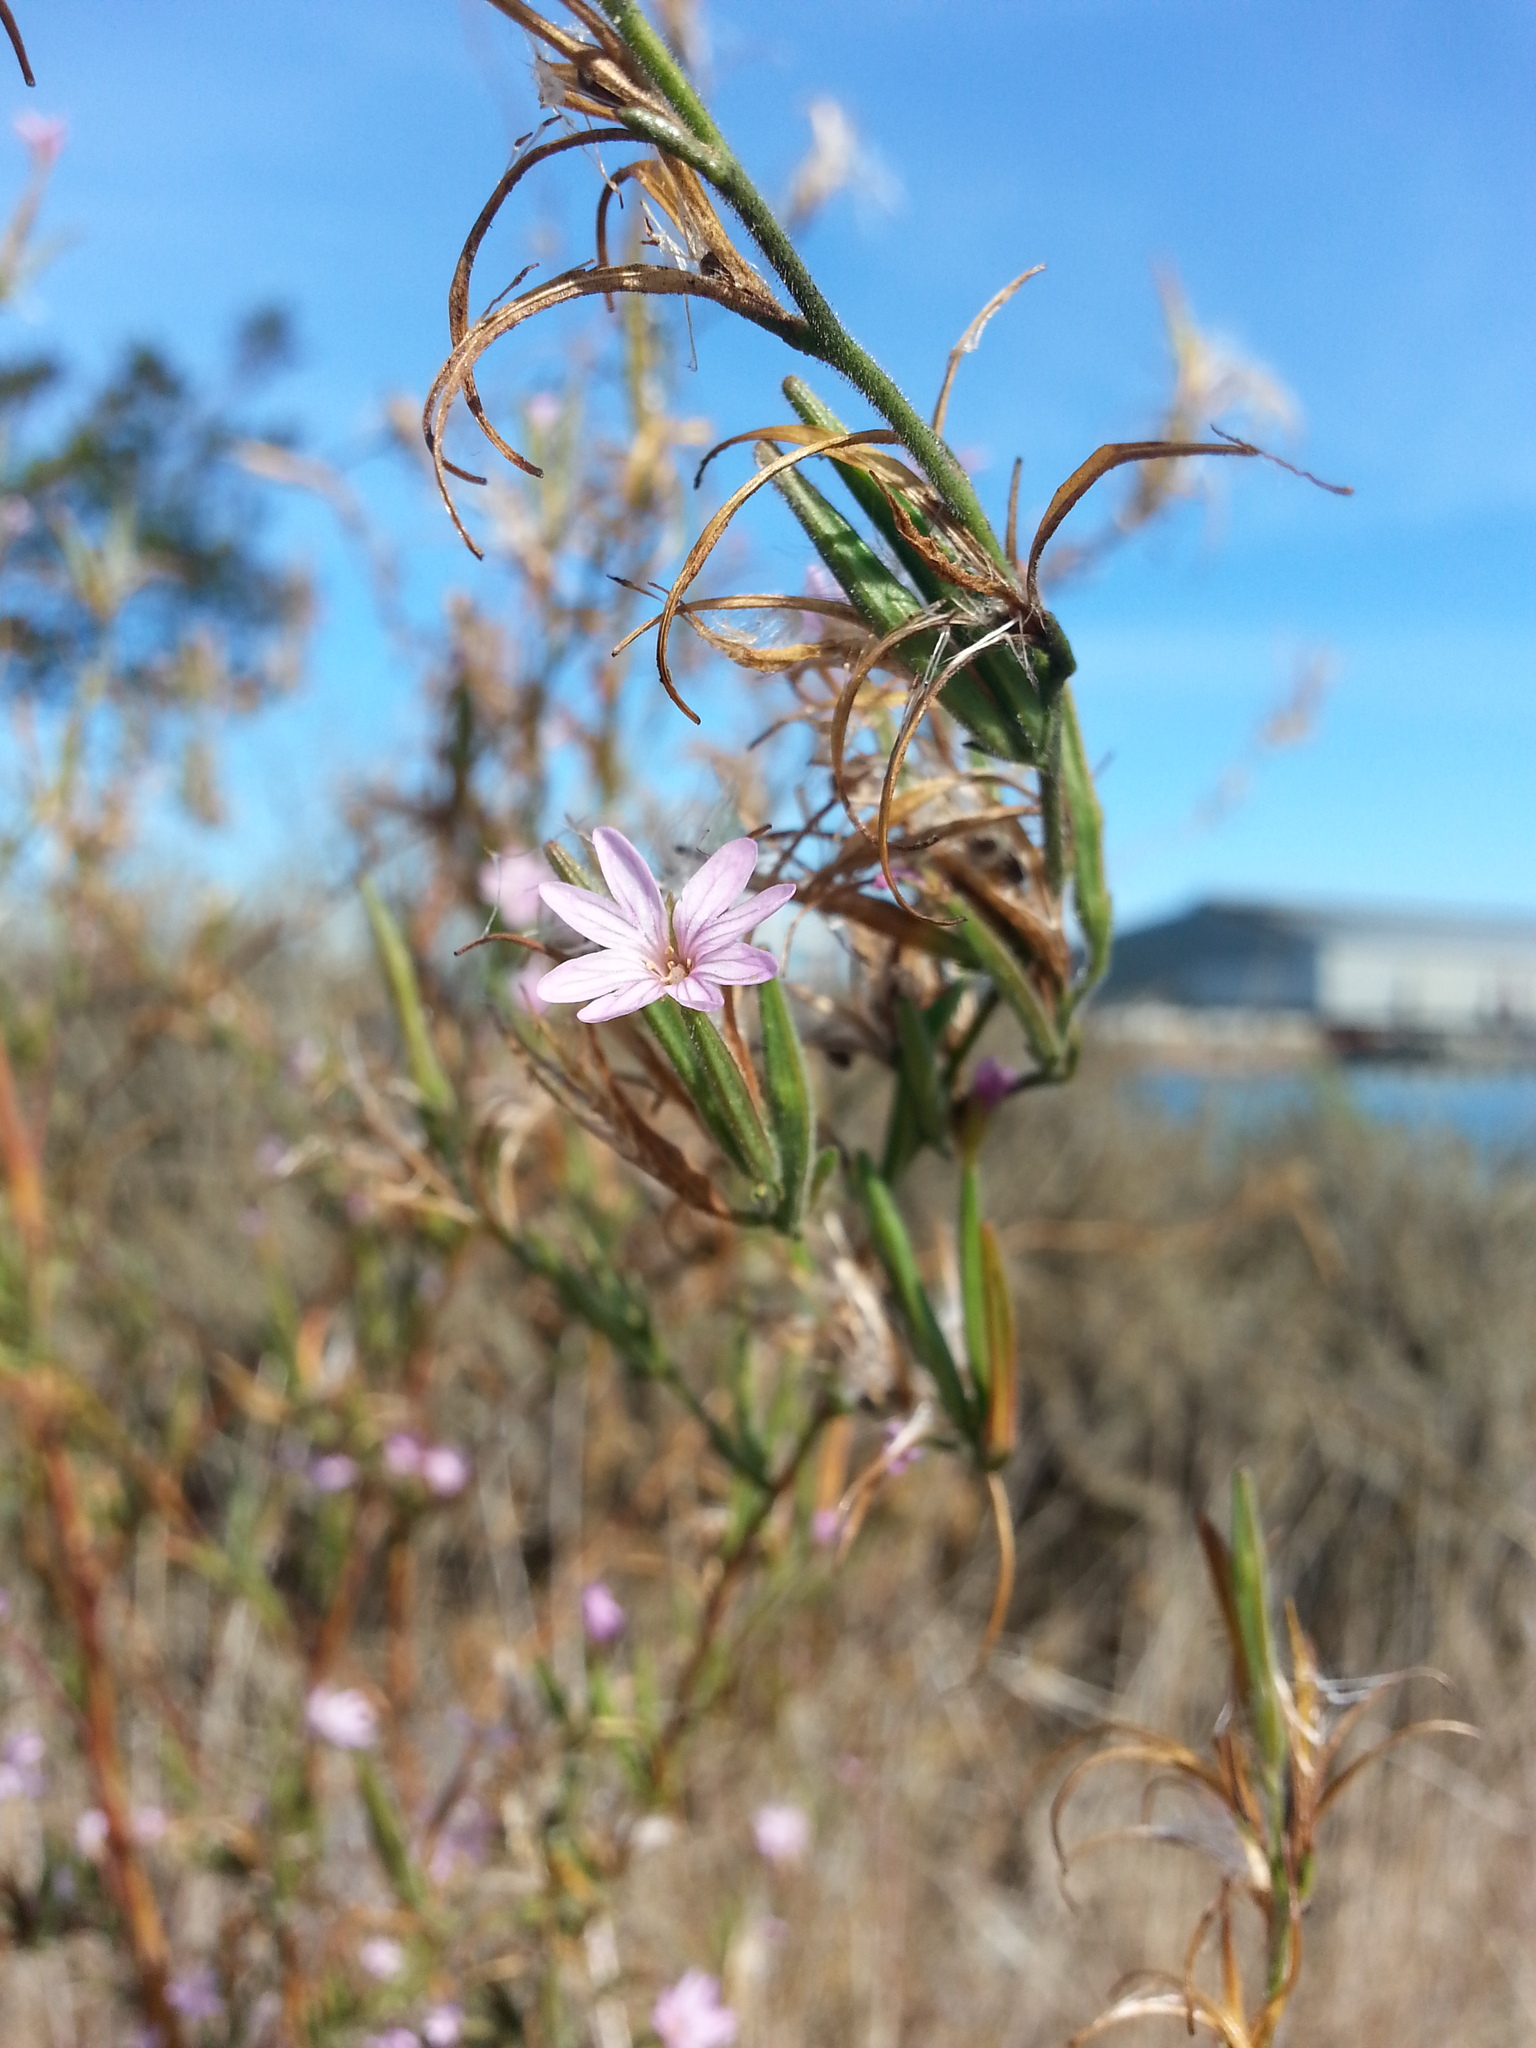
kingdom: Plantae
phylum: Tracheophyta
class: Magnoliopsida
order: Myrtales
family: Onagraceae
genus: Epilobium
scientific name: Epilobium brachycarpum
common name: Annual willowherb
